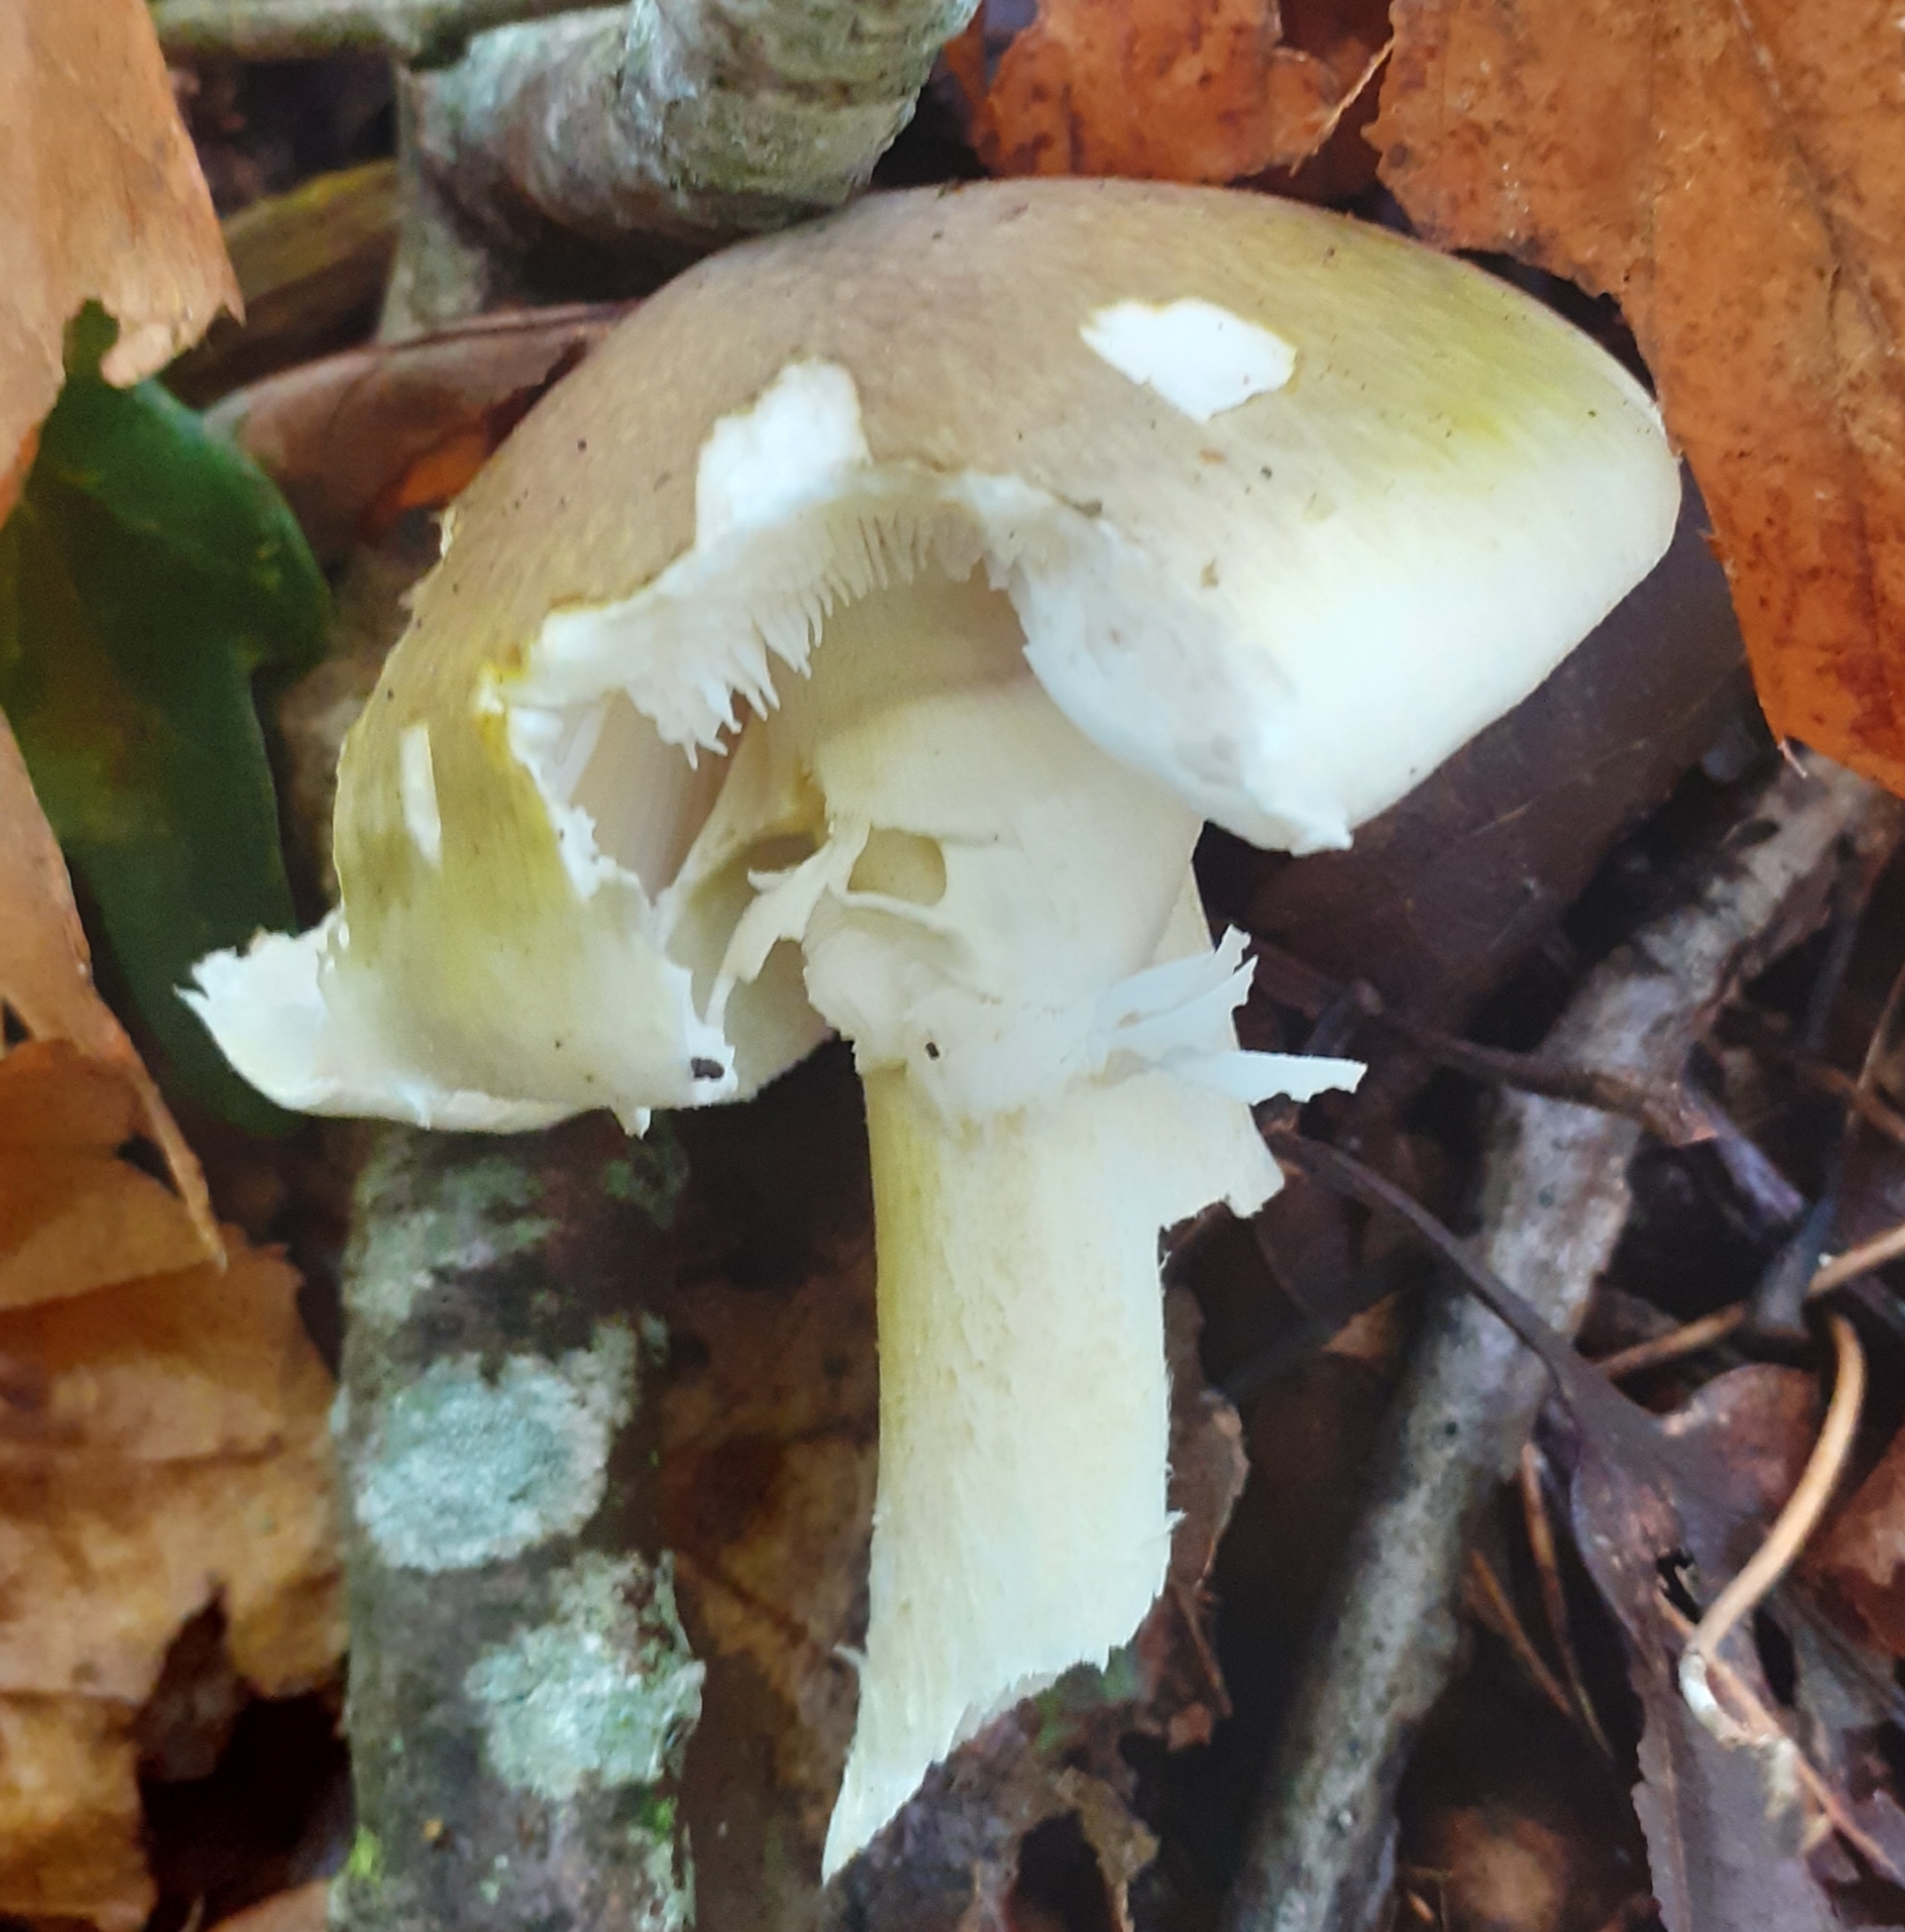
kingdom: Fungi
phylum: Basidiomycota
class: Agaricomycetes
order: Agaricales
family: Amanitaceae
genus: Amanita
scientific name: Amanita phalloides
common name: Death cap
